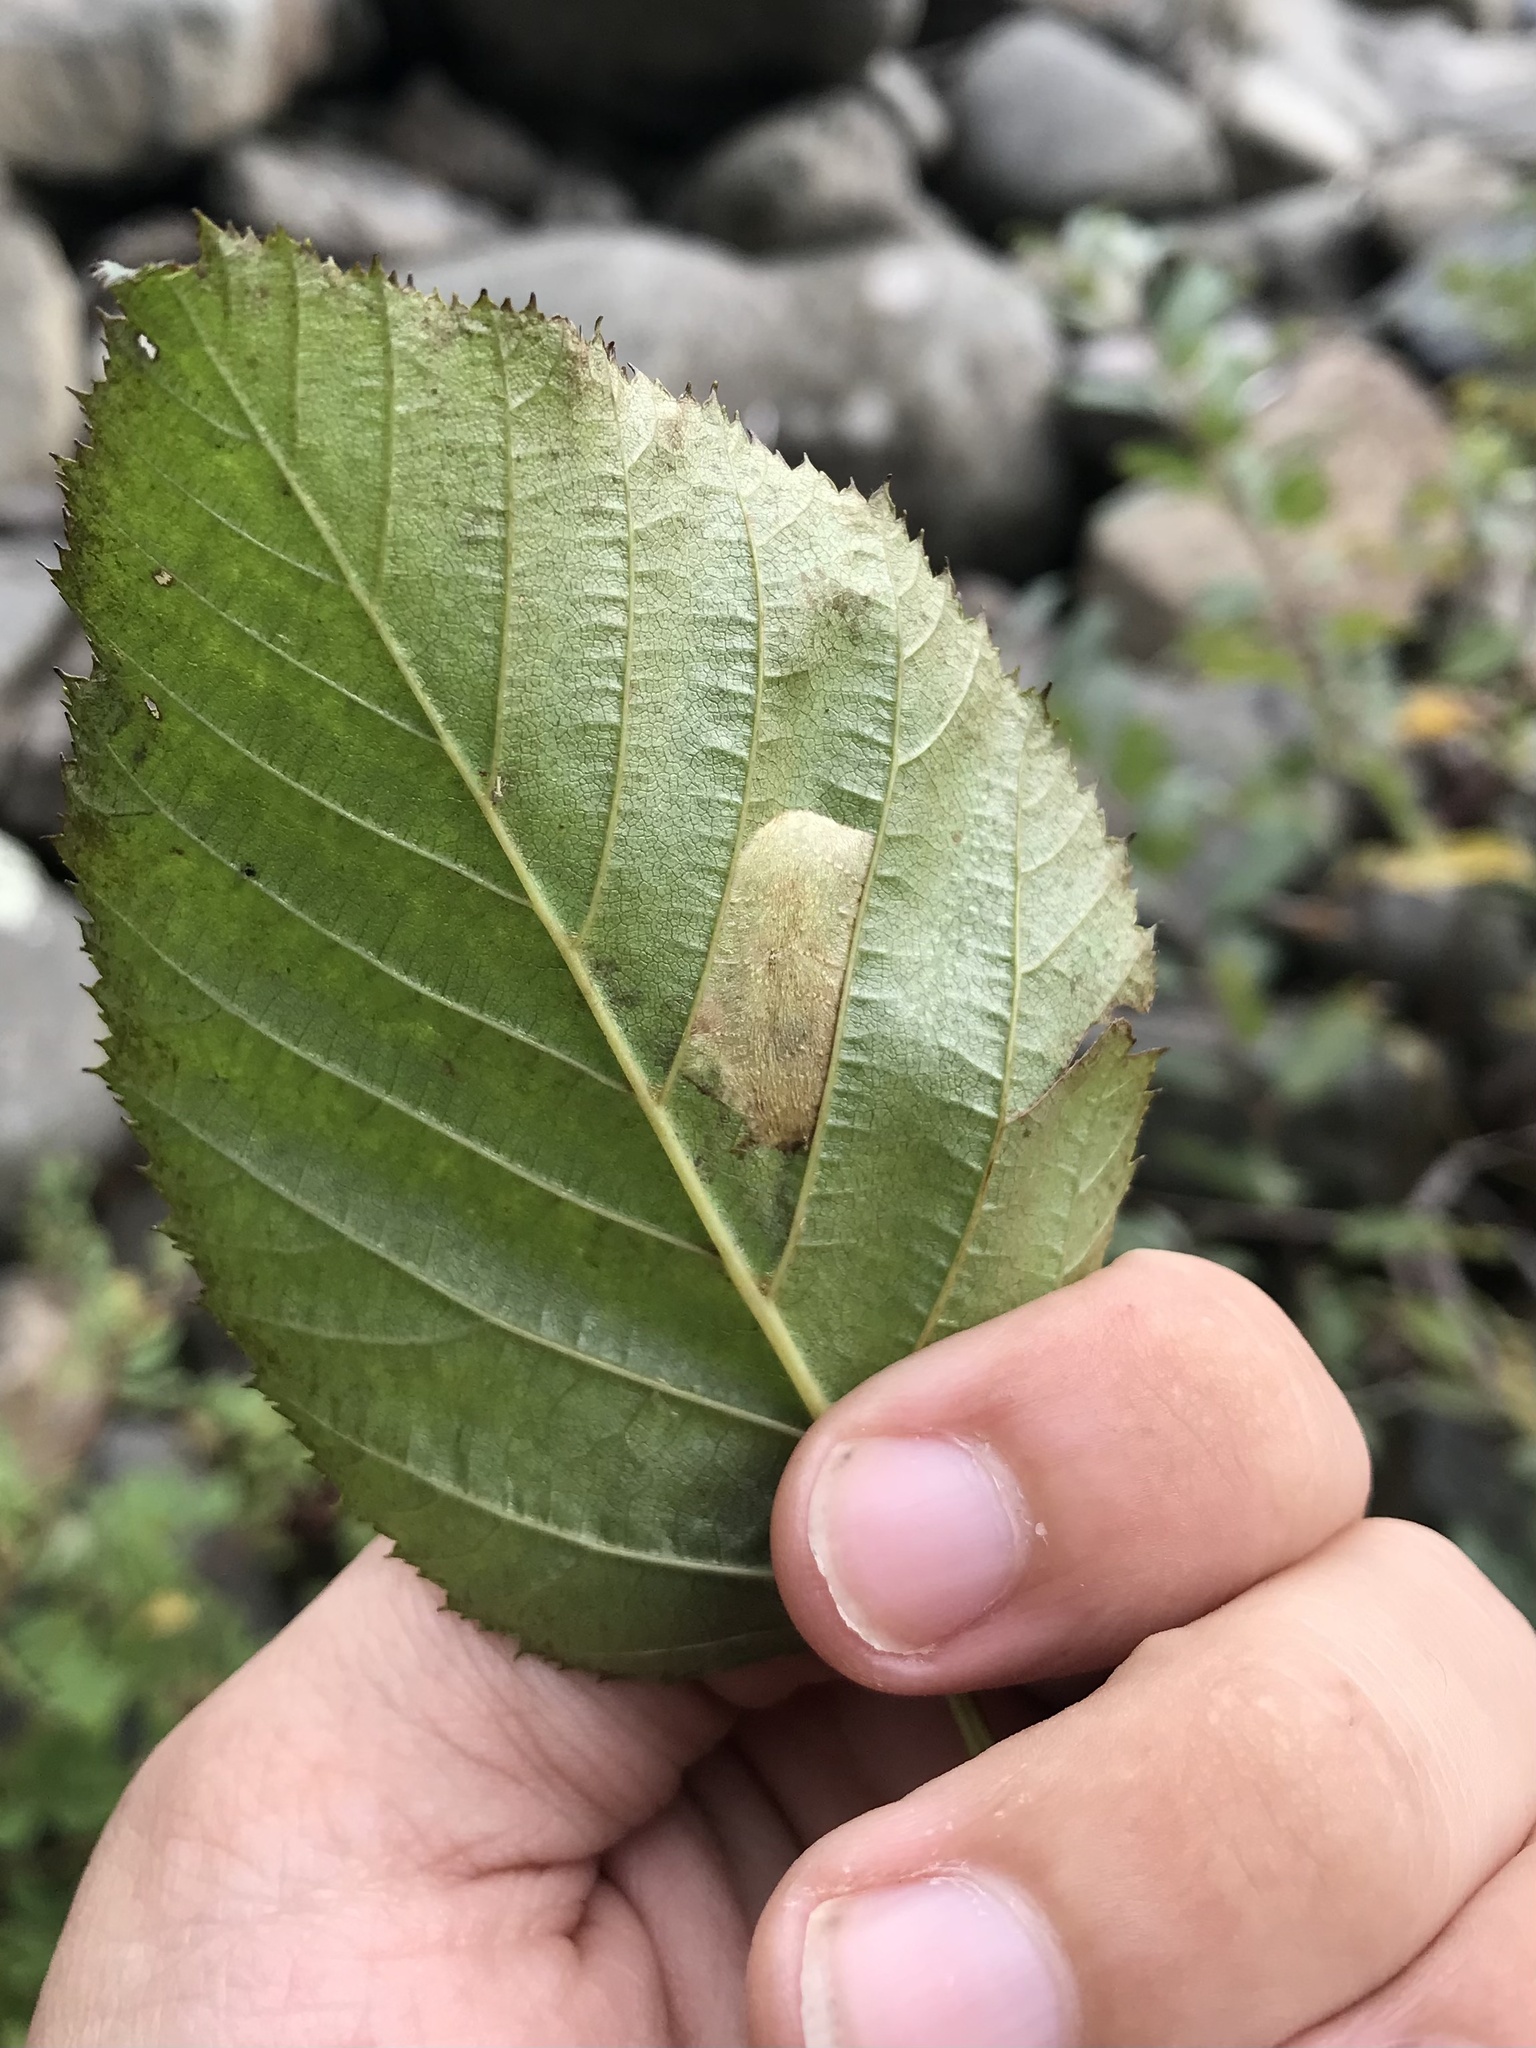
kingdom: Animalia
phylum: Arthropoda
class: Insecta
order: Lepidoptera
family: Gracillariidae
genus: Phyllonorycter
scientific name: Phyllonorycter alaskana
